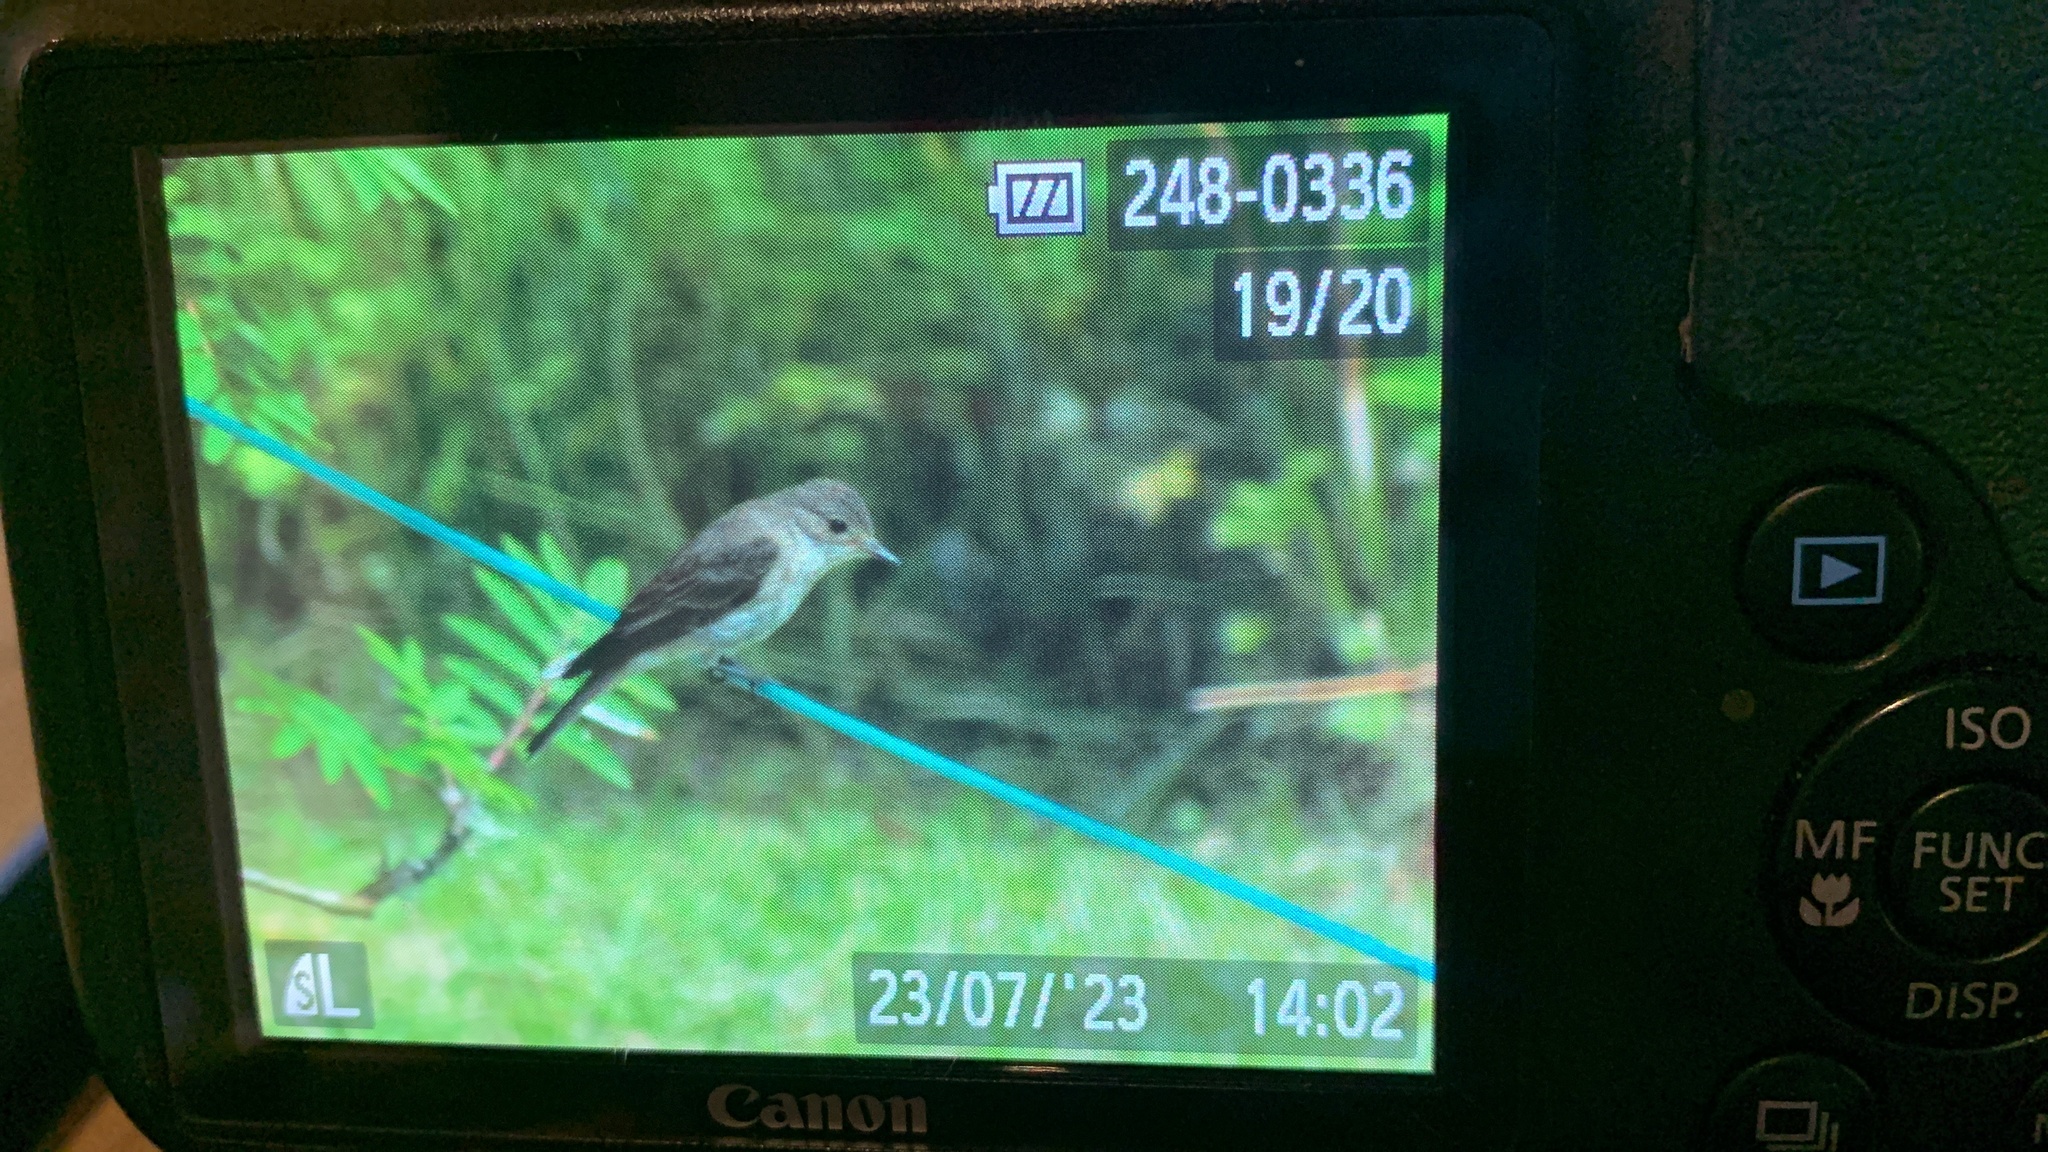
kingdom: Animalia
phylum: Chordata
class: Aves
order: Passeriformes
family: Muscicapidae
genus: Muscicapa
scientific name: Muscicapa striata
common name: Spotted flycatcher
